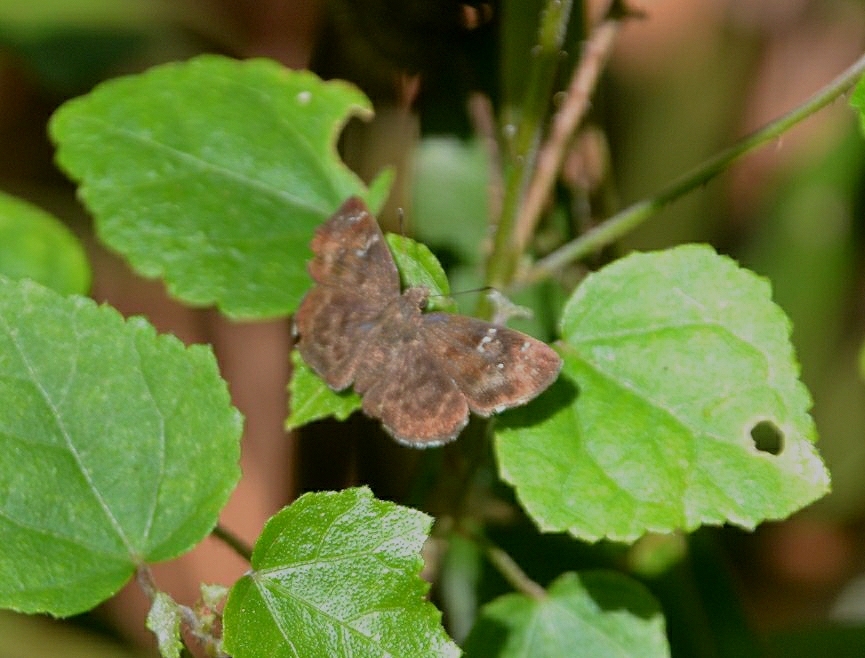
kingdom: Animalia
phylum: Arthropoda
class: Insecta
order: Lepidoptera
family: Hesperiidae
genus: Sarangesa
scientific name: Sarangesa dasahara
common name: Common small flat
